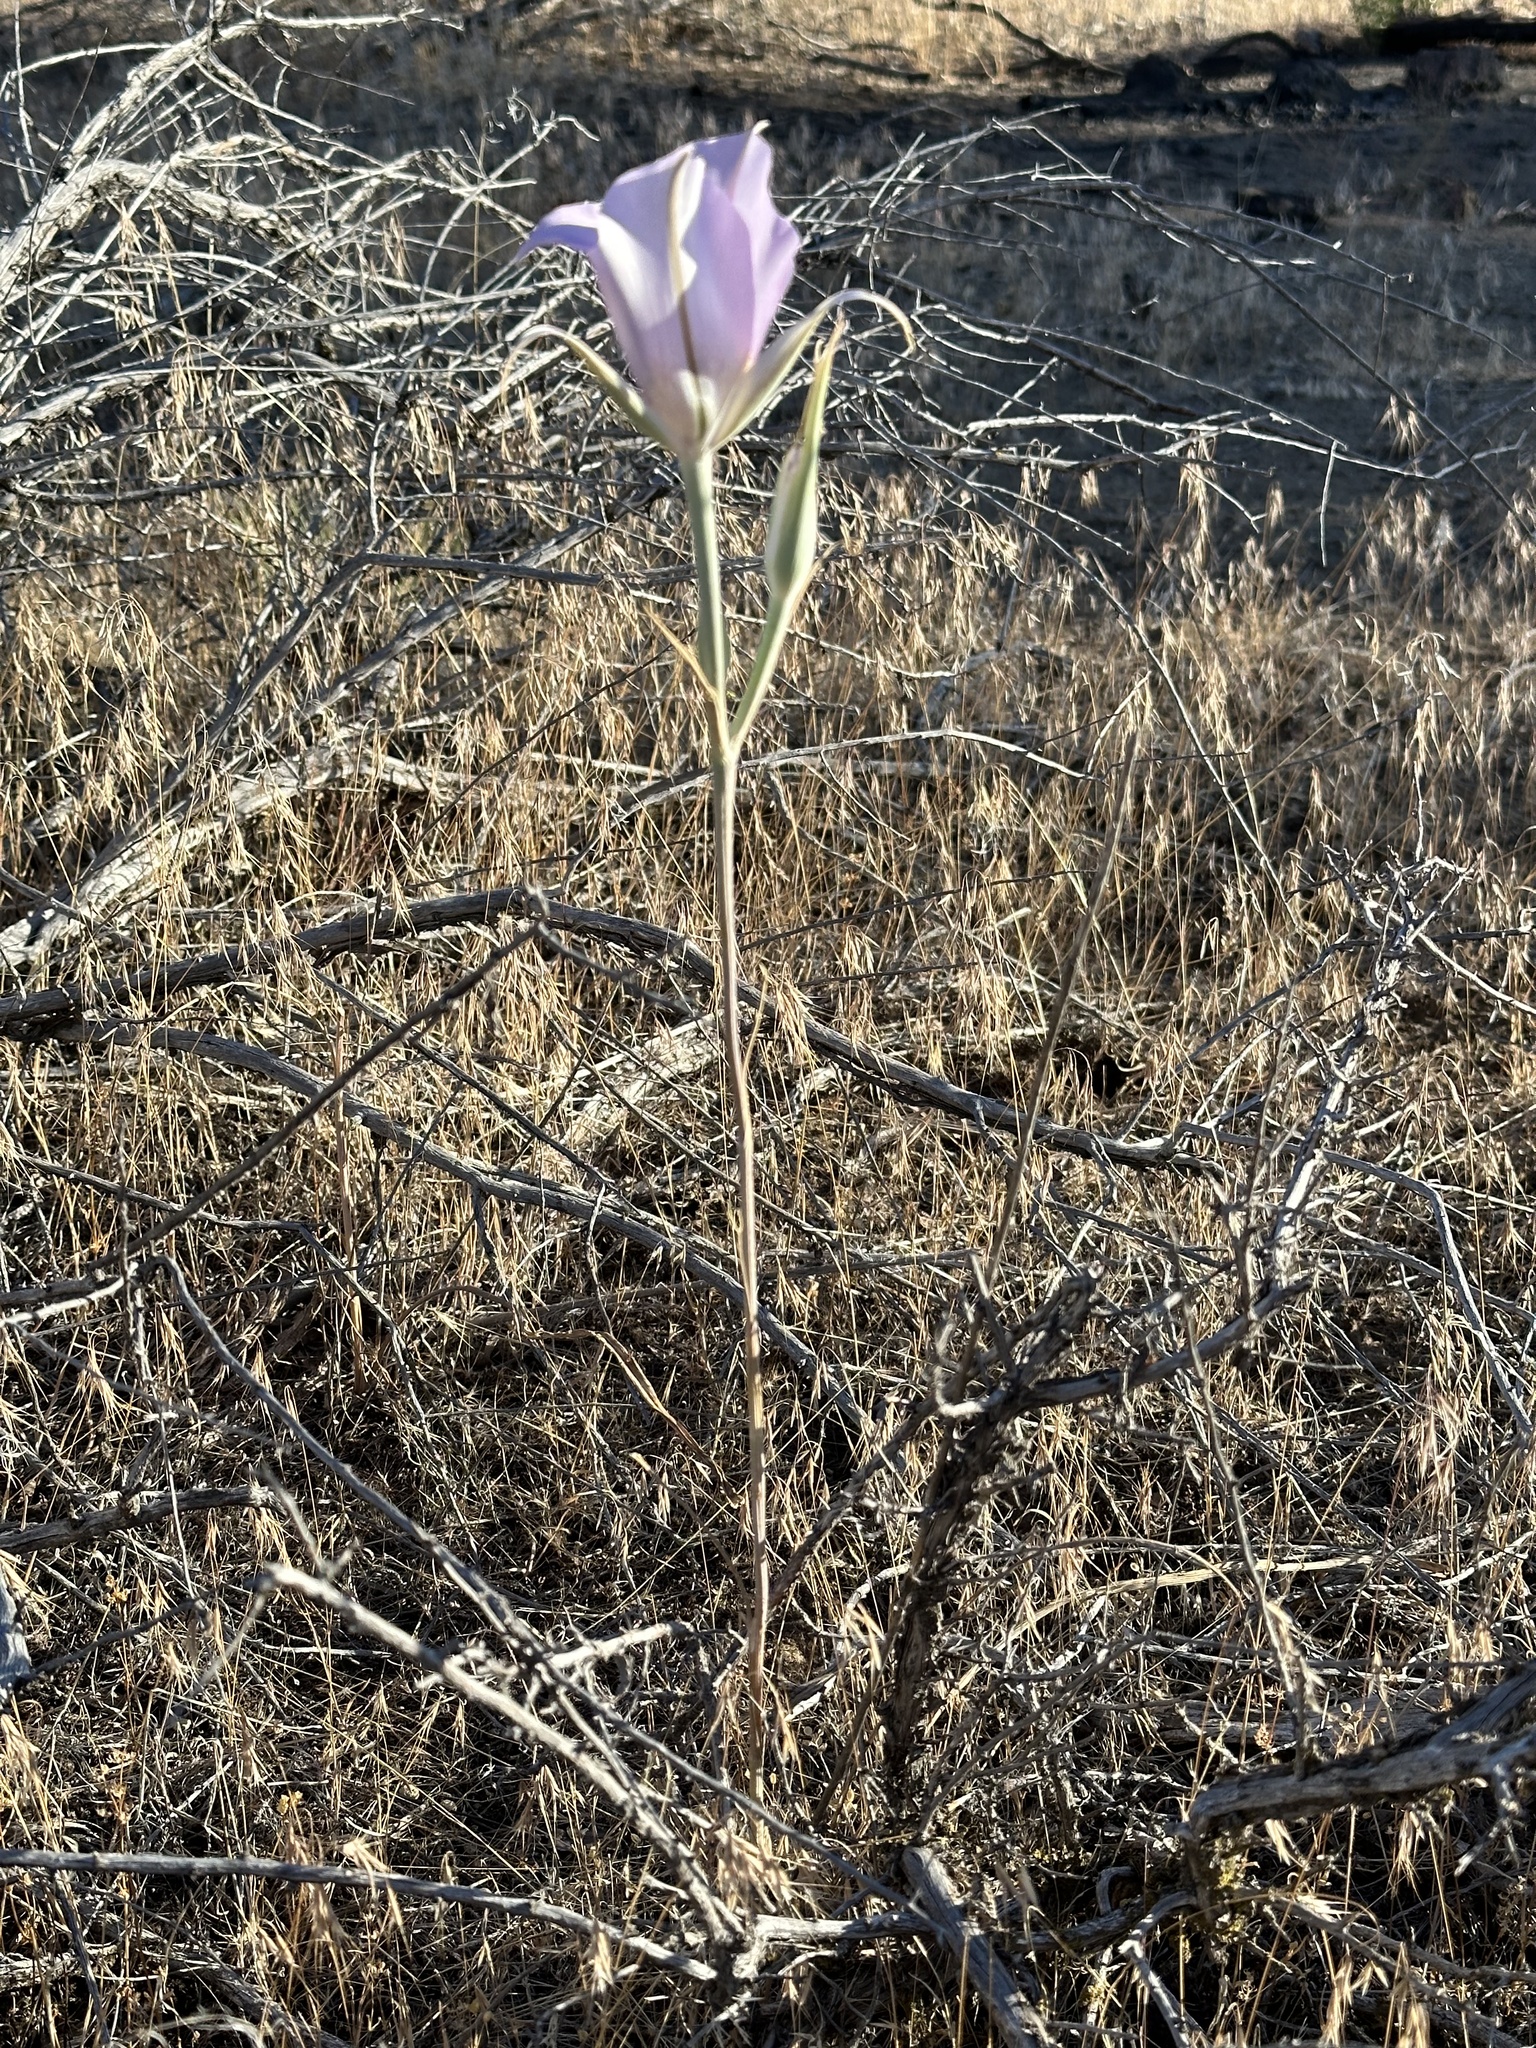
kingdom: Plantae
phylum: Tracheophyta
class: Liliopsida
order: Liliales
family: Liliaceae
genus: Calochortus
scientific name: Calochortus macrocarpus
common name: Green-band mariposa lily
